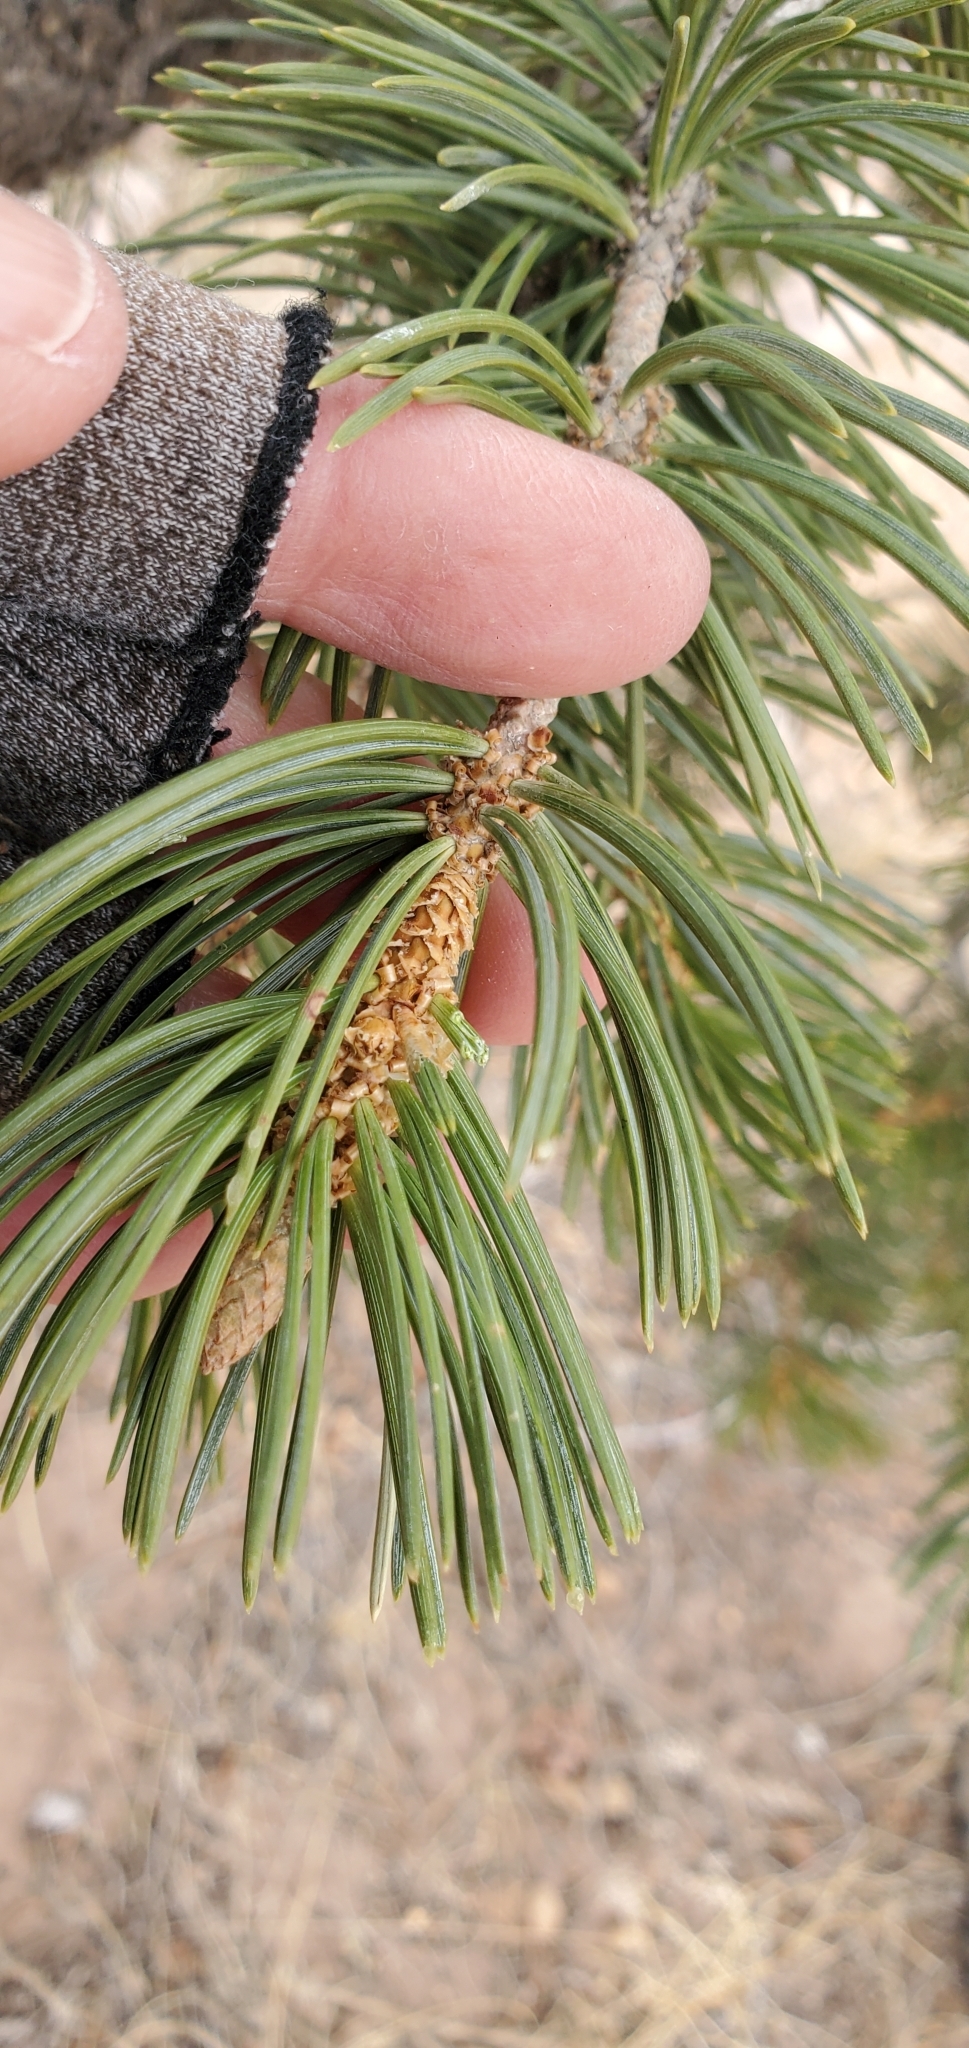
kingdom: Plantae
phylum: Tracheophyta
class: Pinopsida
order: Pinales
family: Pinaceae
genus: Pinus
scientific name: Pinus edulis
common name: Colorado pinyon
